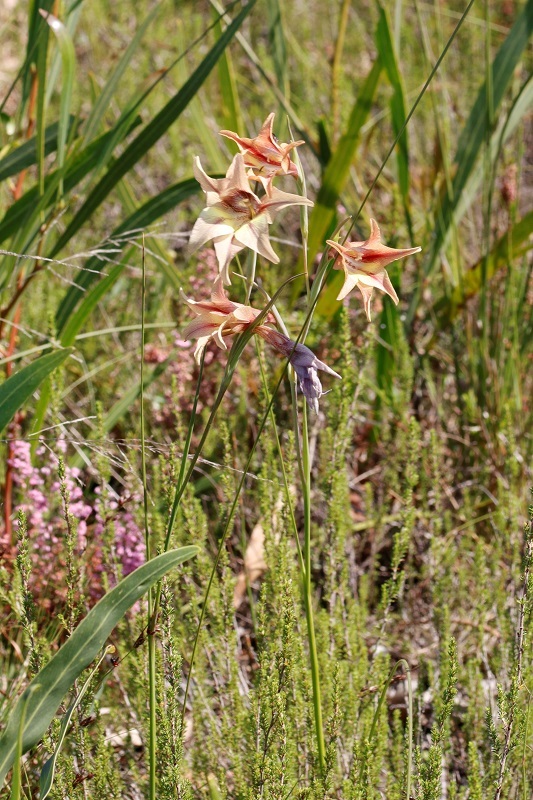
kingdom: Plantae
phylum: Tracheophyta
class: Liliopsida
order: Asparagales
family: Iridaceae
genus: Gladiolus
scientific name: Gladiolus liliaceus
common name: Large brown afrikaner
